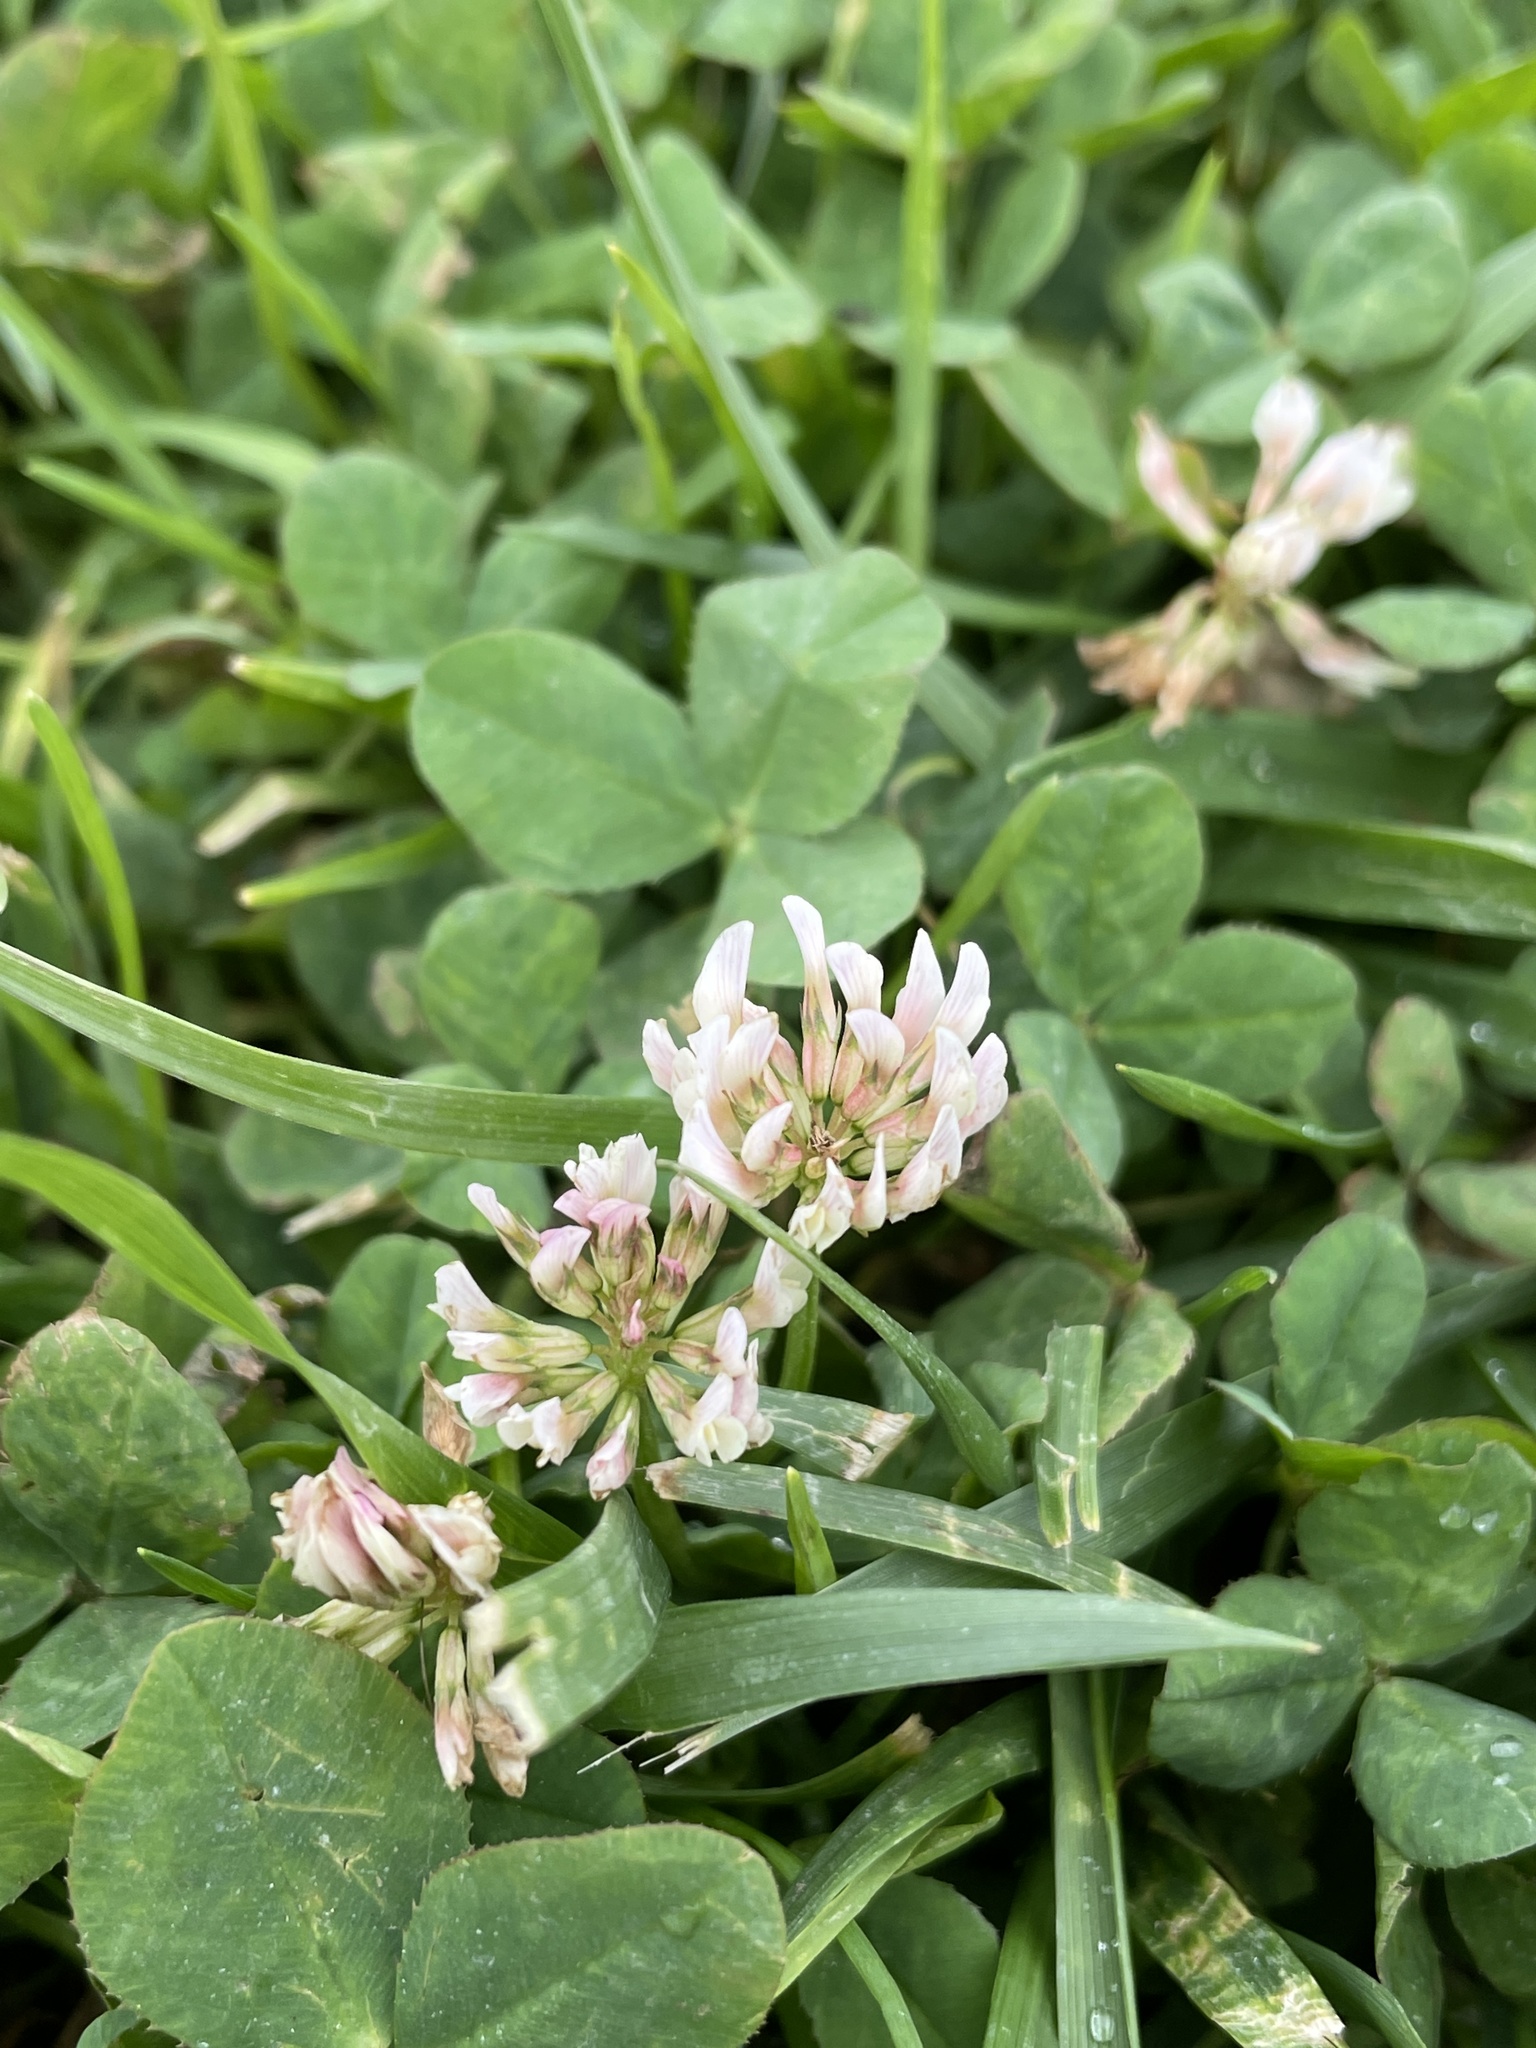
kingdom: Plantae
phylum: Tracheophyta
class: Magnoliopsida
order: Fabales
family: Fabaceae
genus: Trifolium
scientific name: Trifolium repens
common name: White clover
